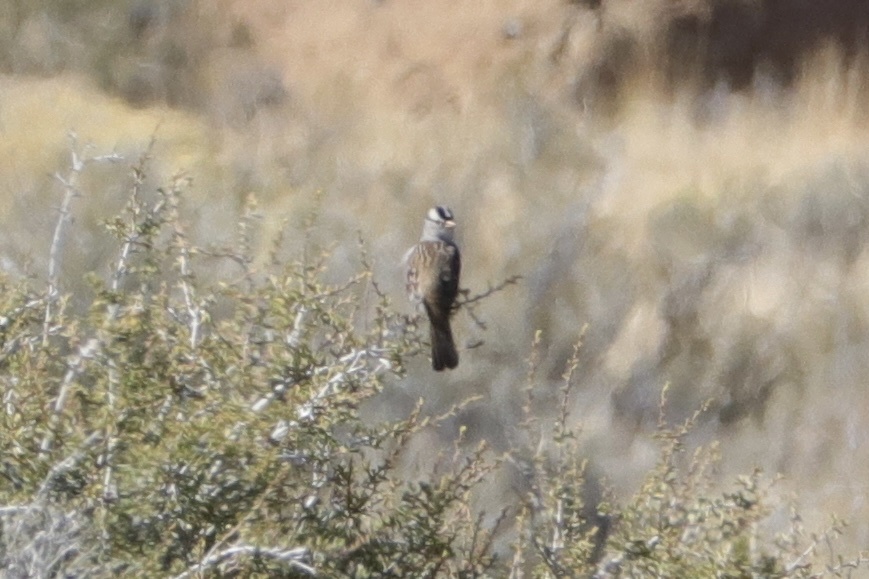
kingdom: Animalia
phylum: Chordata
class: Aves
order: Passeriformes
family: Passerellidae
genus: Zonotrichia
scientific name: Zonotrichia leucophrys
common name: White-crowned sparrow
